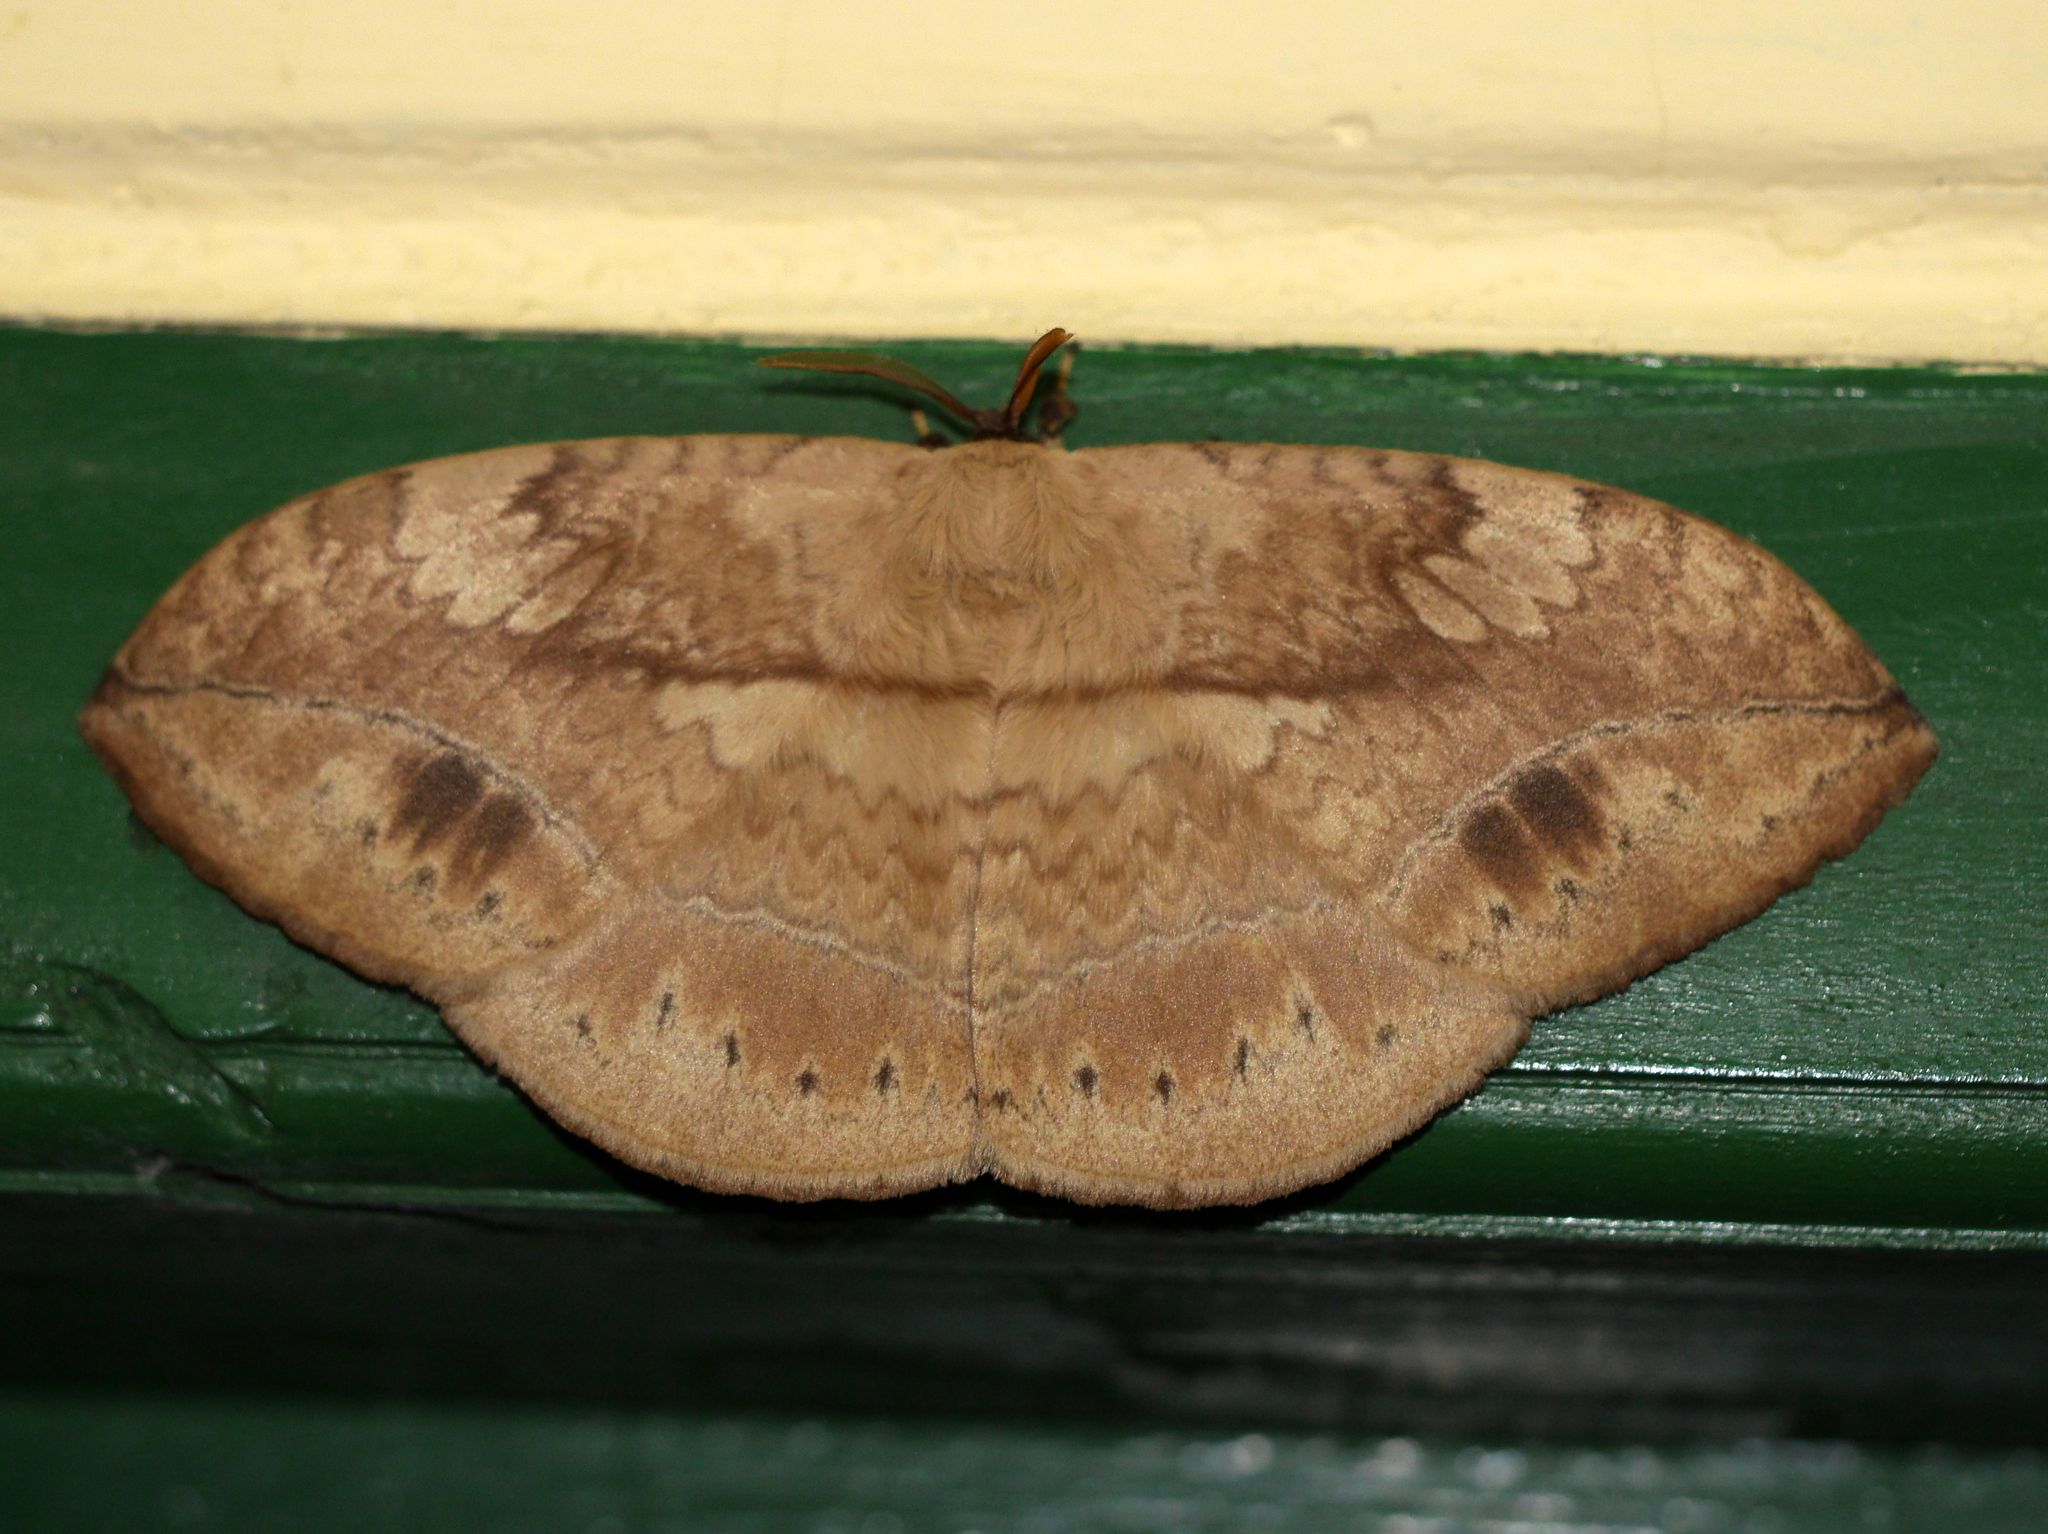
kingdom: Animalia
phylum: Arthropoda
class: Insecta
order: Lepidoptera
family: Eupterotidae
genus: Sphingognatha
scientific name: Sphingognatha
